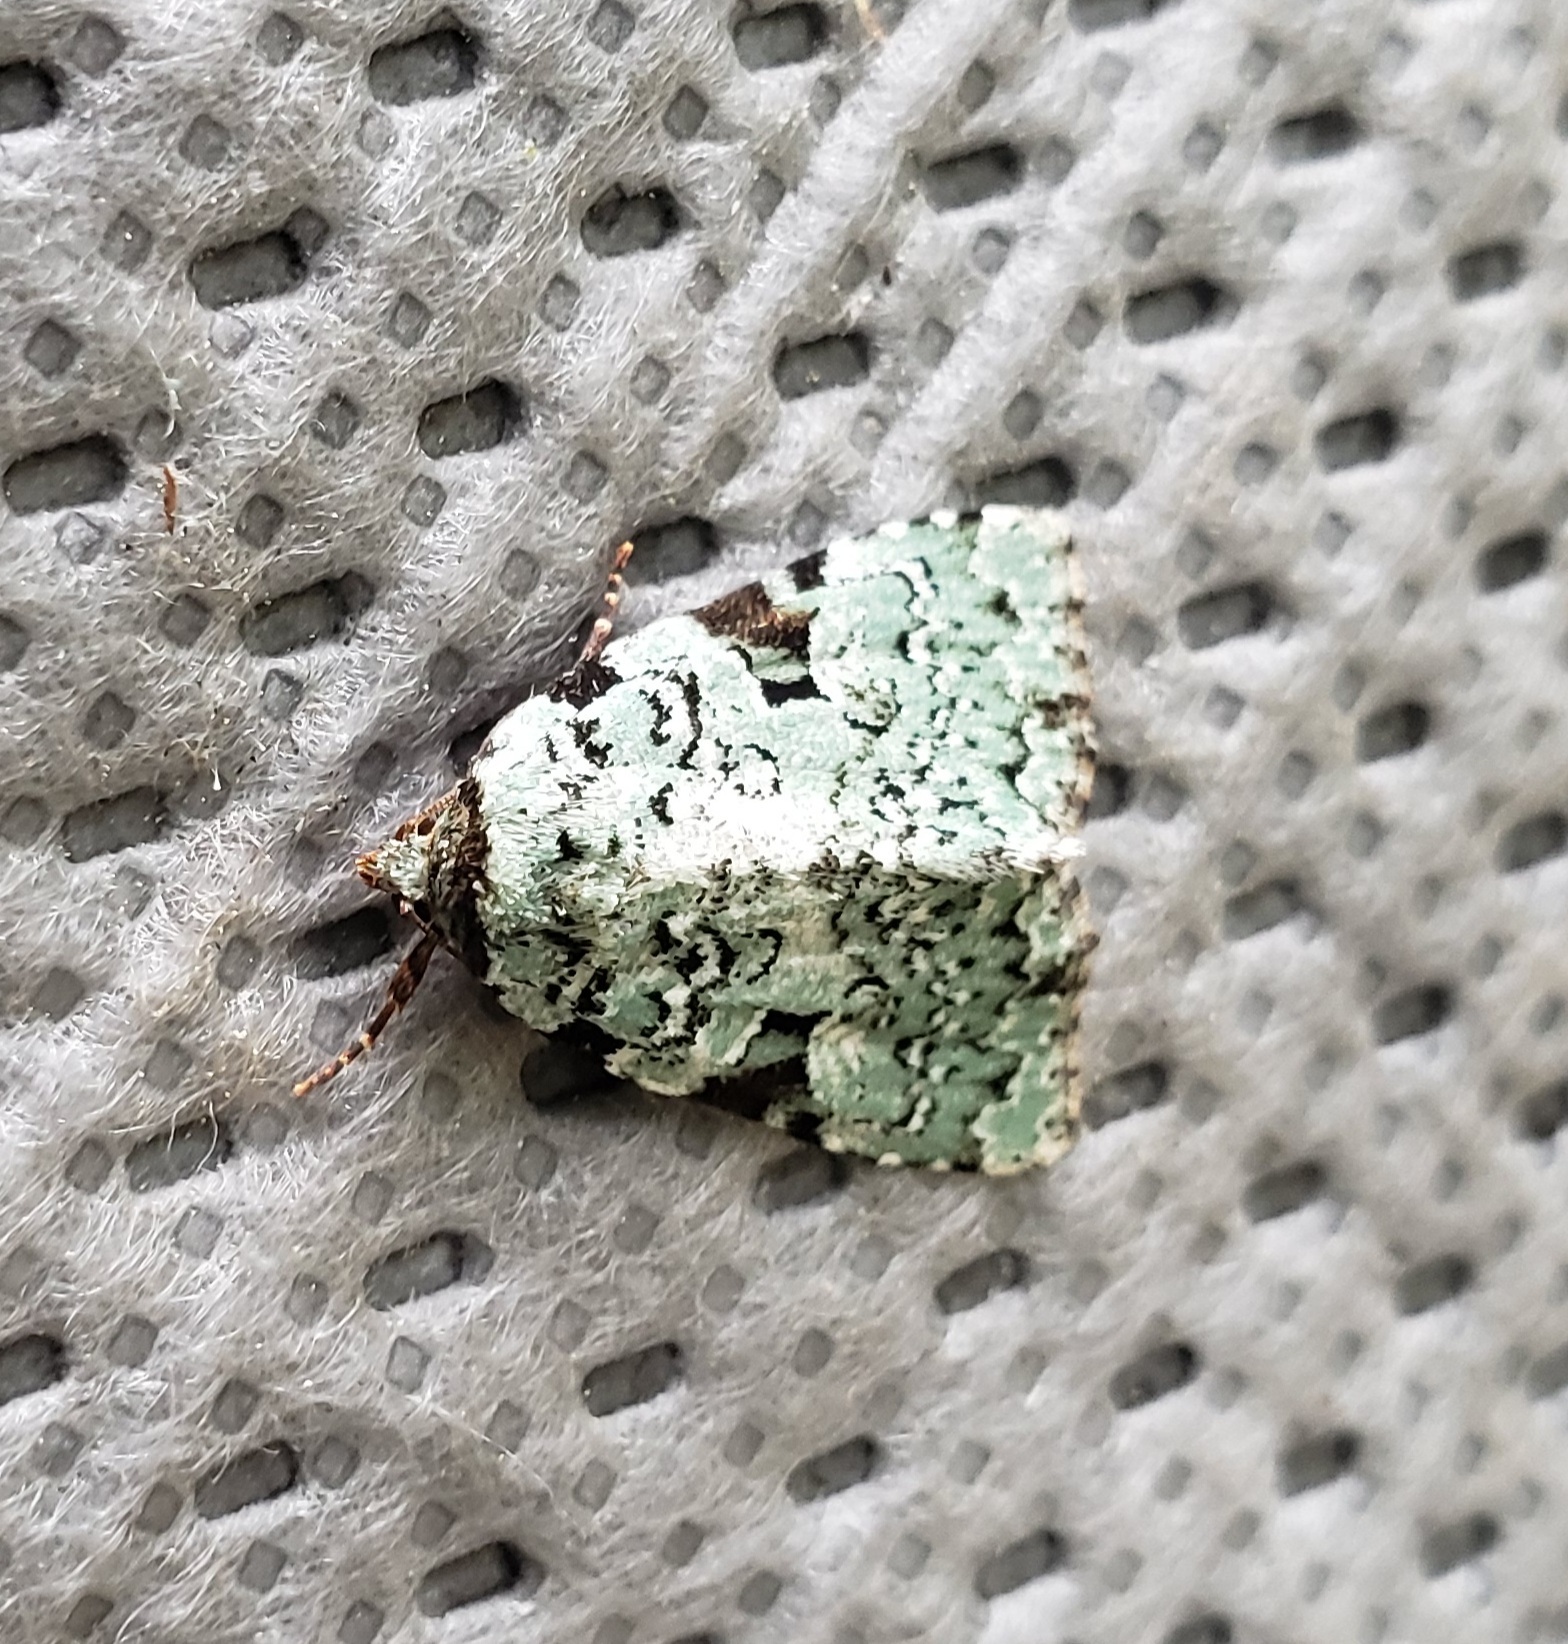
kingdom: Animalia
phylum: Arthropoda
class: Insecta
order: Lepidoptera
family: Noctuidae
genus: Leuconycta
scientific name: Leuconycta diphteroides
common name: Green leuconycta moth
